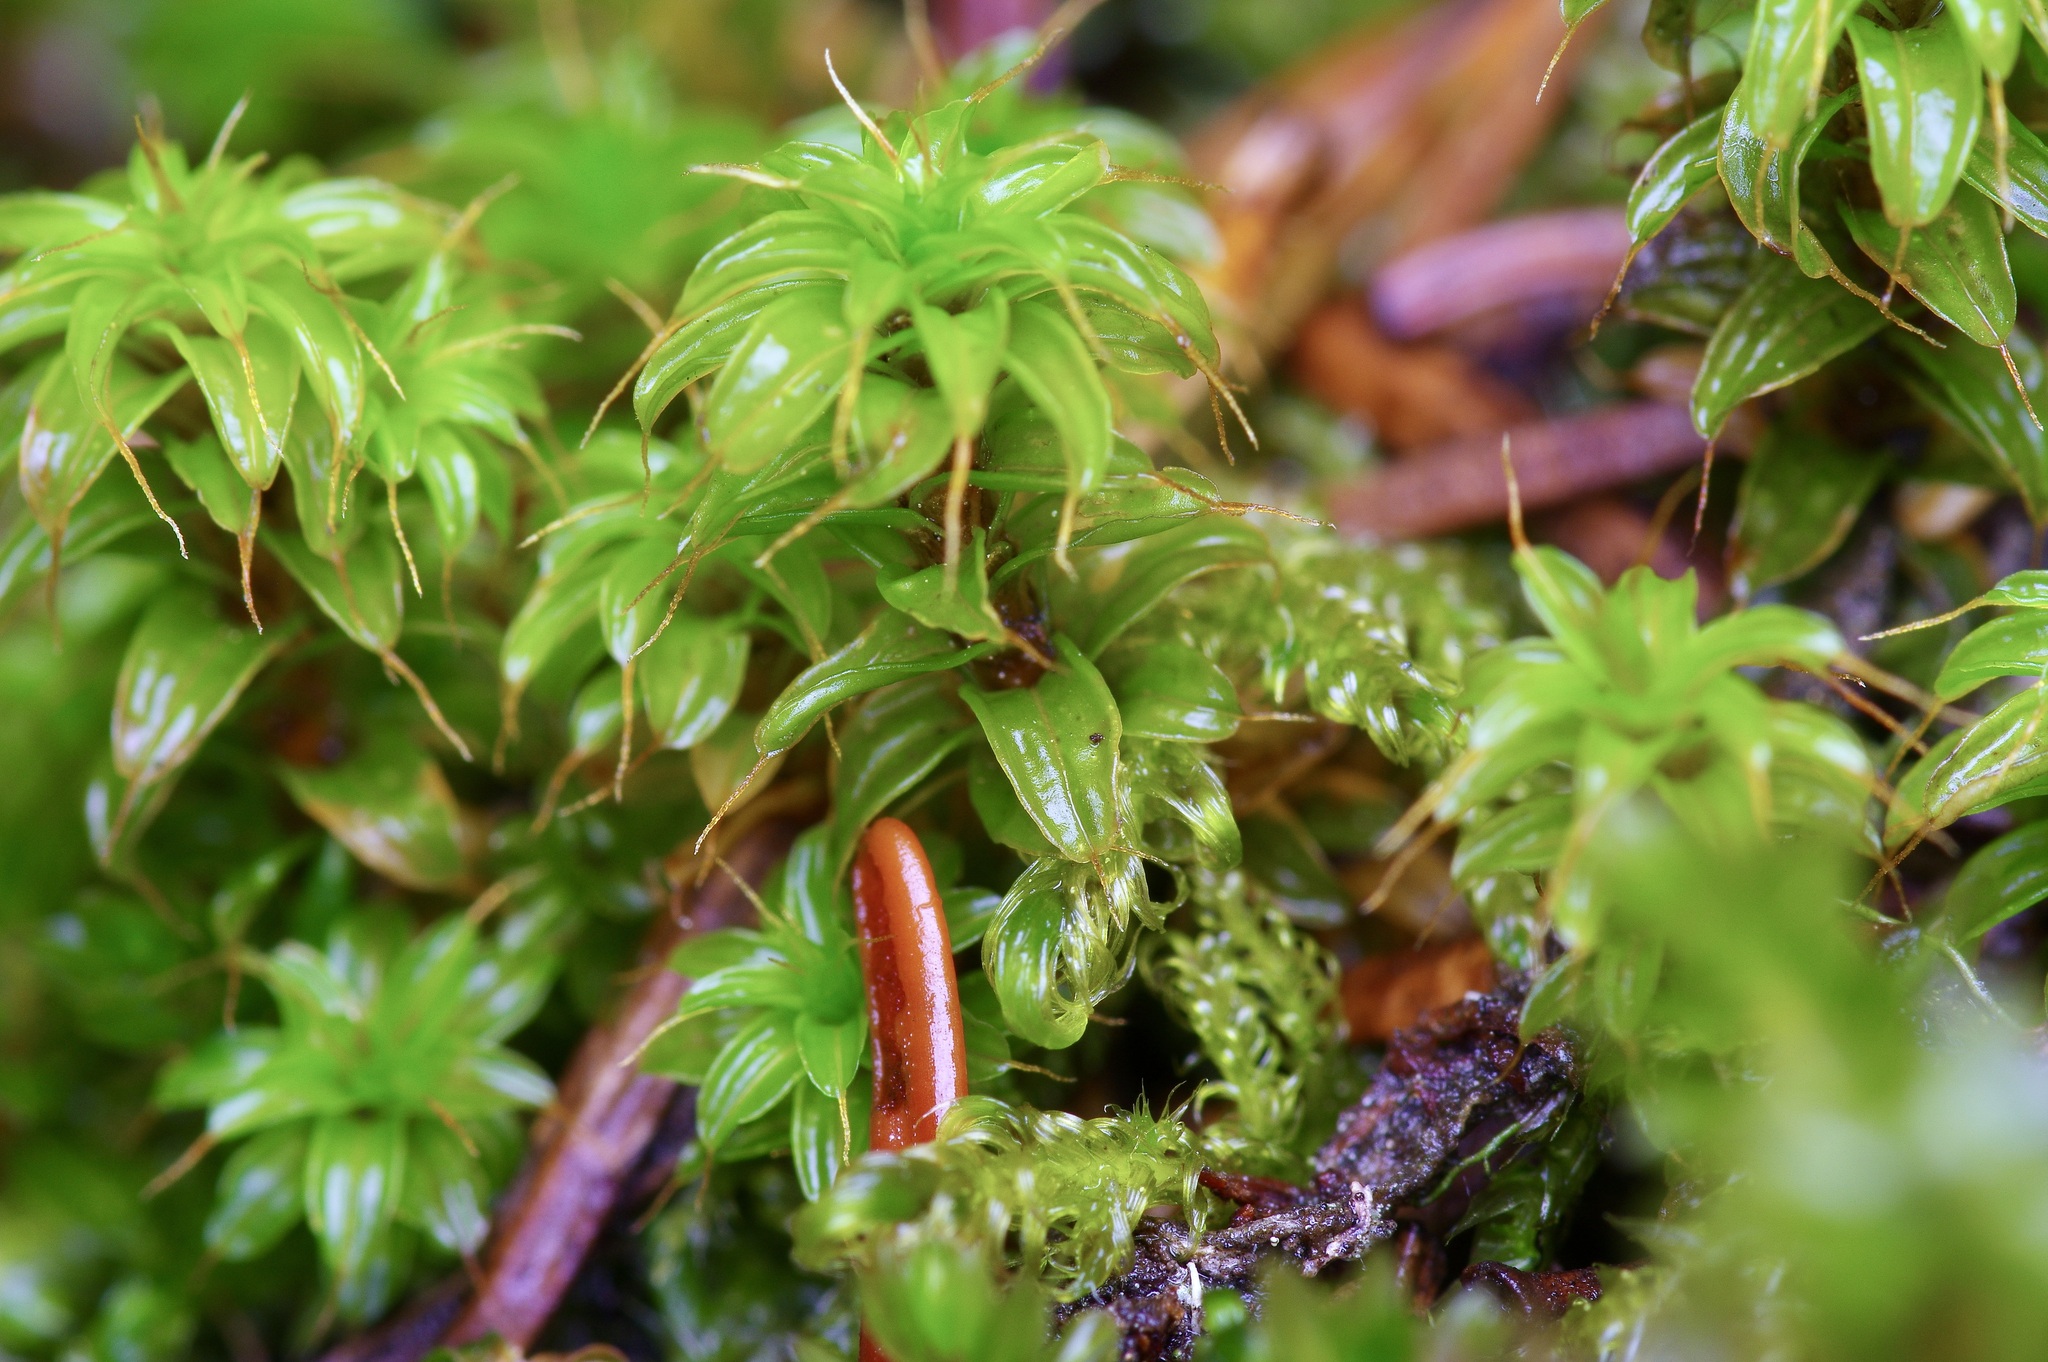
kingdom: Plantae
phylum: Bryophyta
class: Bryopsida
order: Pottiales
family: Pottiaceae
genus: Syntrichia
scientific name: Syntrichia norvegica
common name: Norway screw moss
